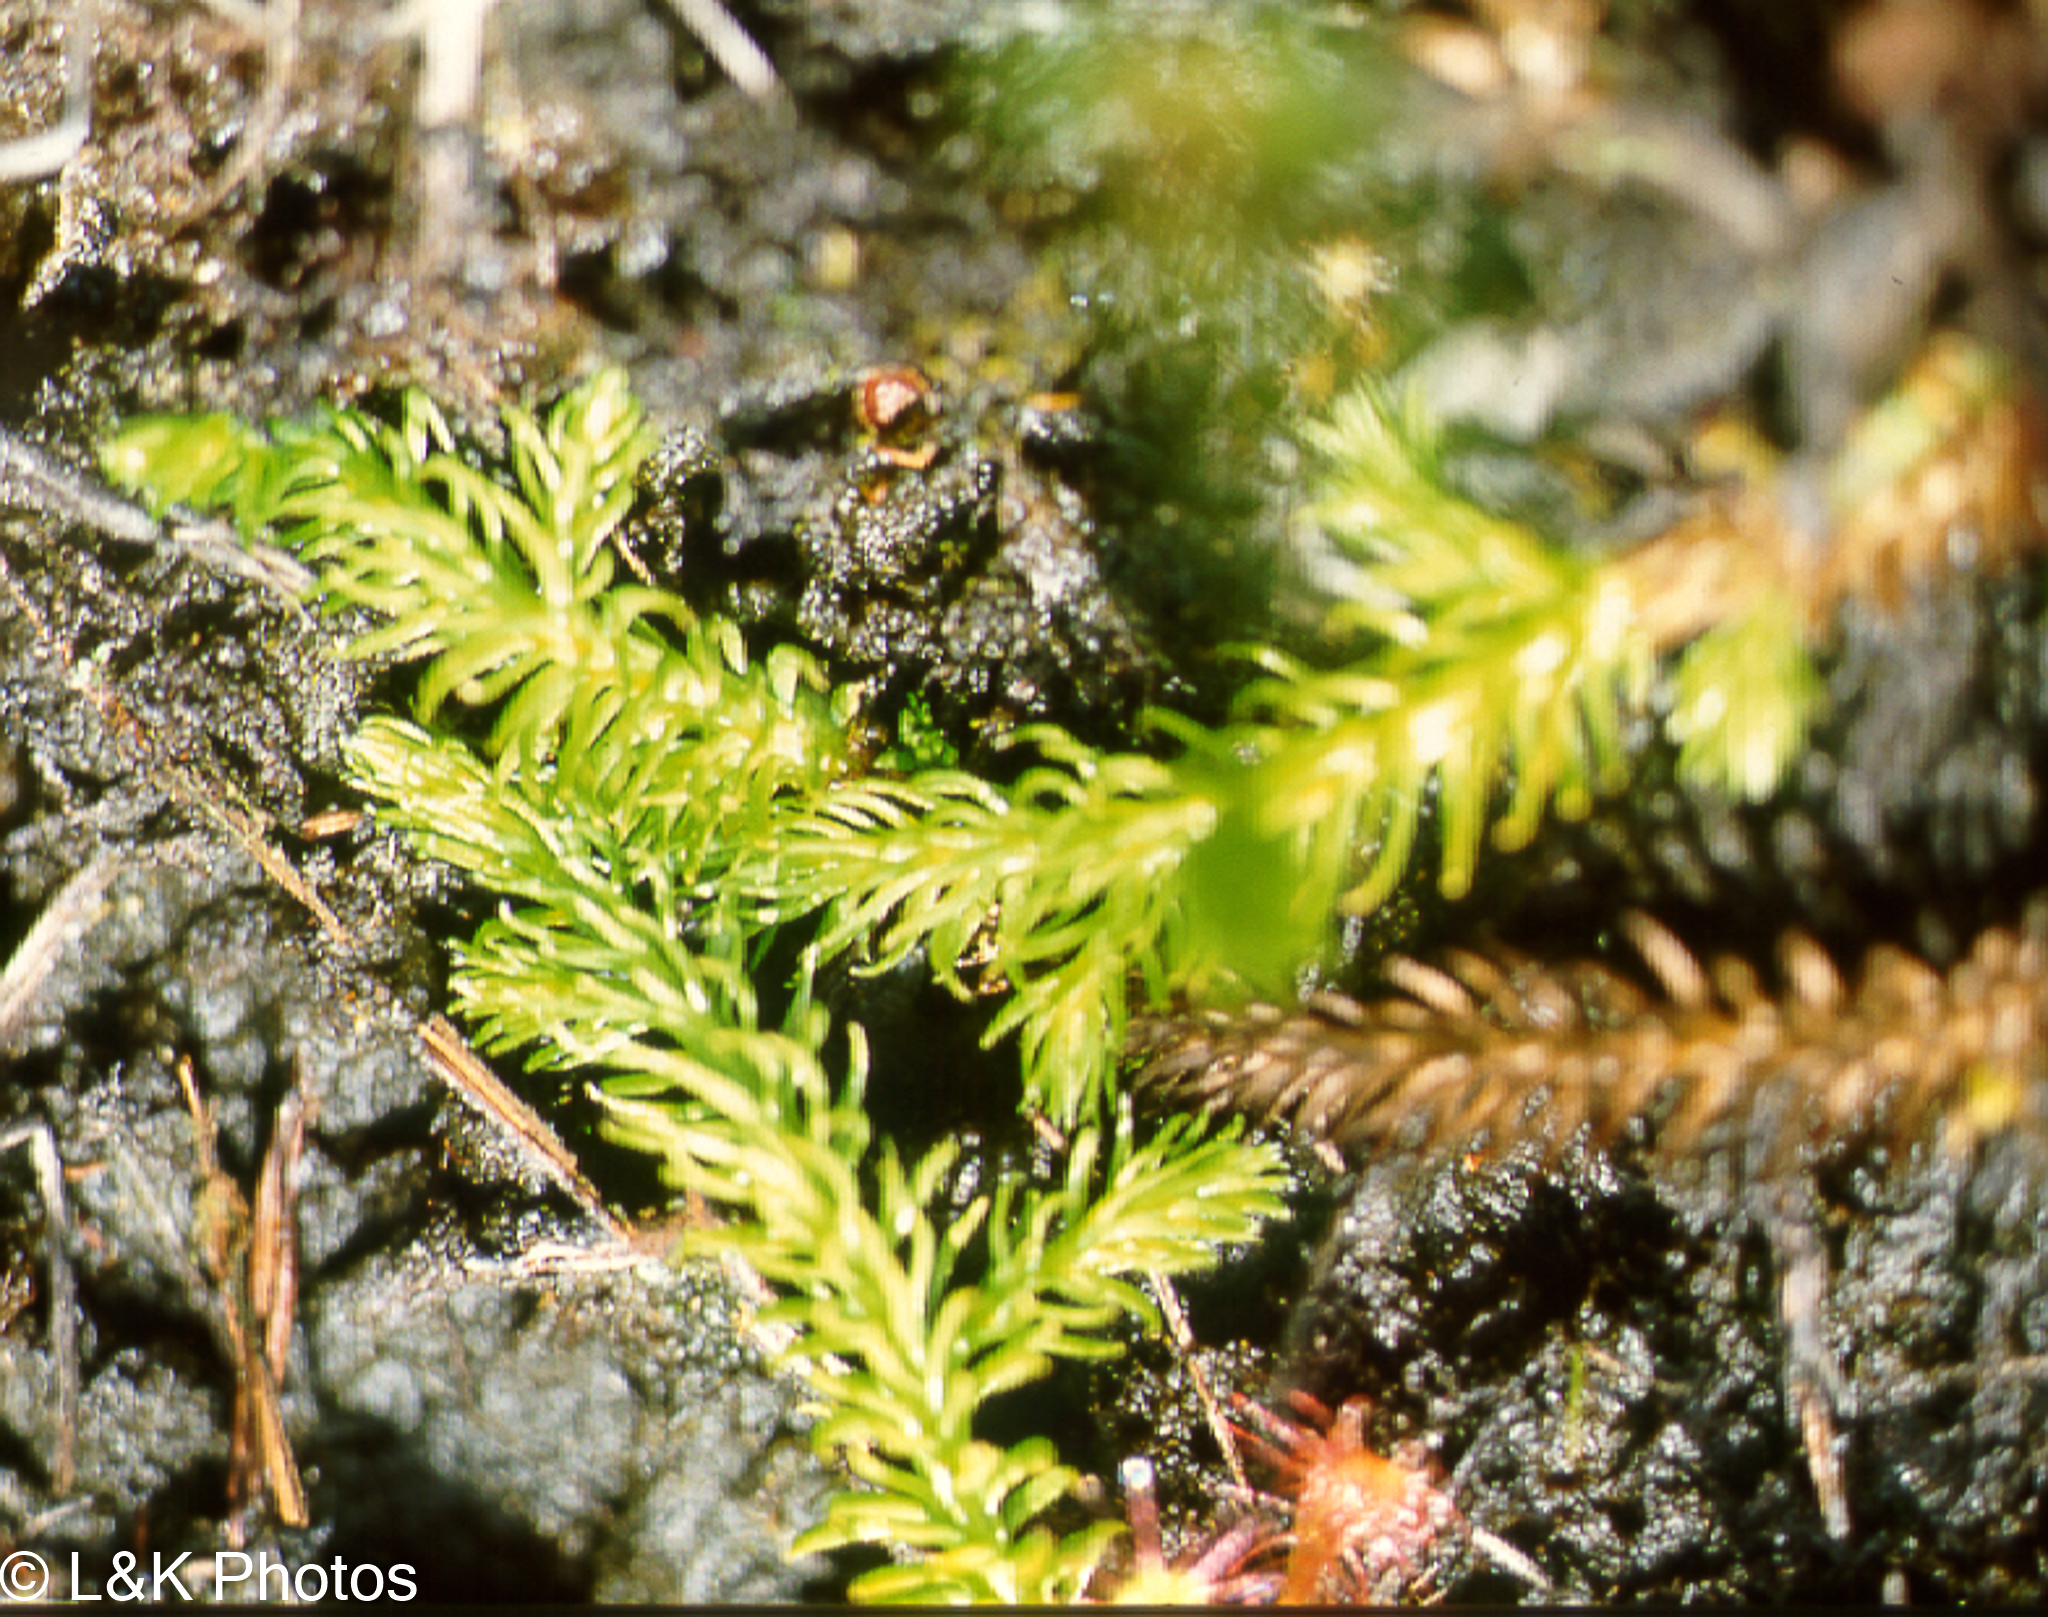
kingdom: Plantae
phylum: Tracheophyta
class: Lycopodiopsida
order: Lycopodiales
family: Lycopodiaceae
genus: Lycopodiella
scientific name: Lycopodiella inundata
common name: Marsh clubmoss
